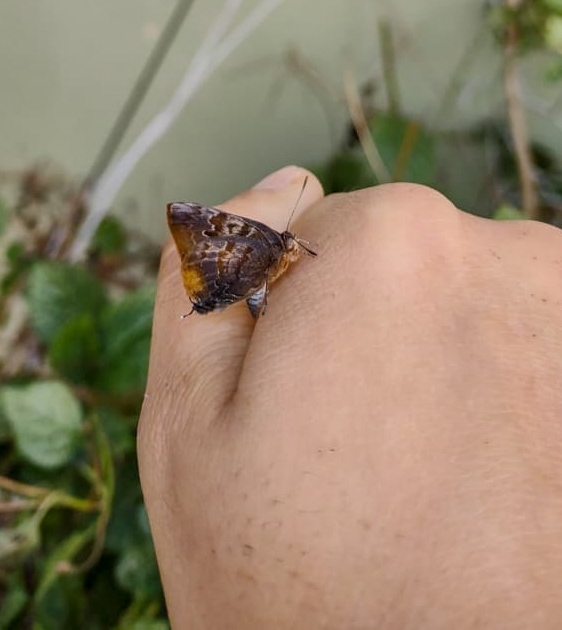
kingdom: Animalia
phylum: Arthropoda
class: Insecta
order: Lepidoptera
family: Lycaenidae
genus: Rekoa
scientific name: Rekoa palegon
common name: Gold-bordered hairstreak
